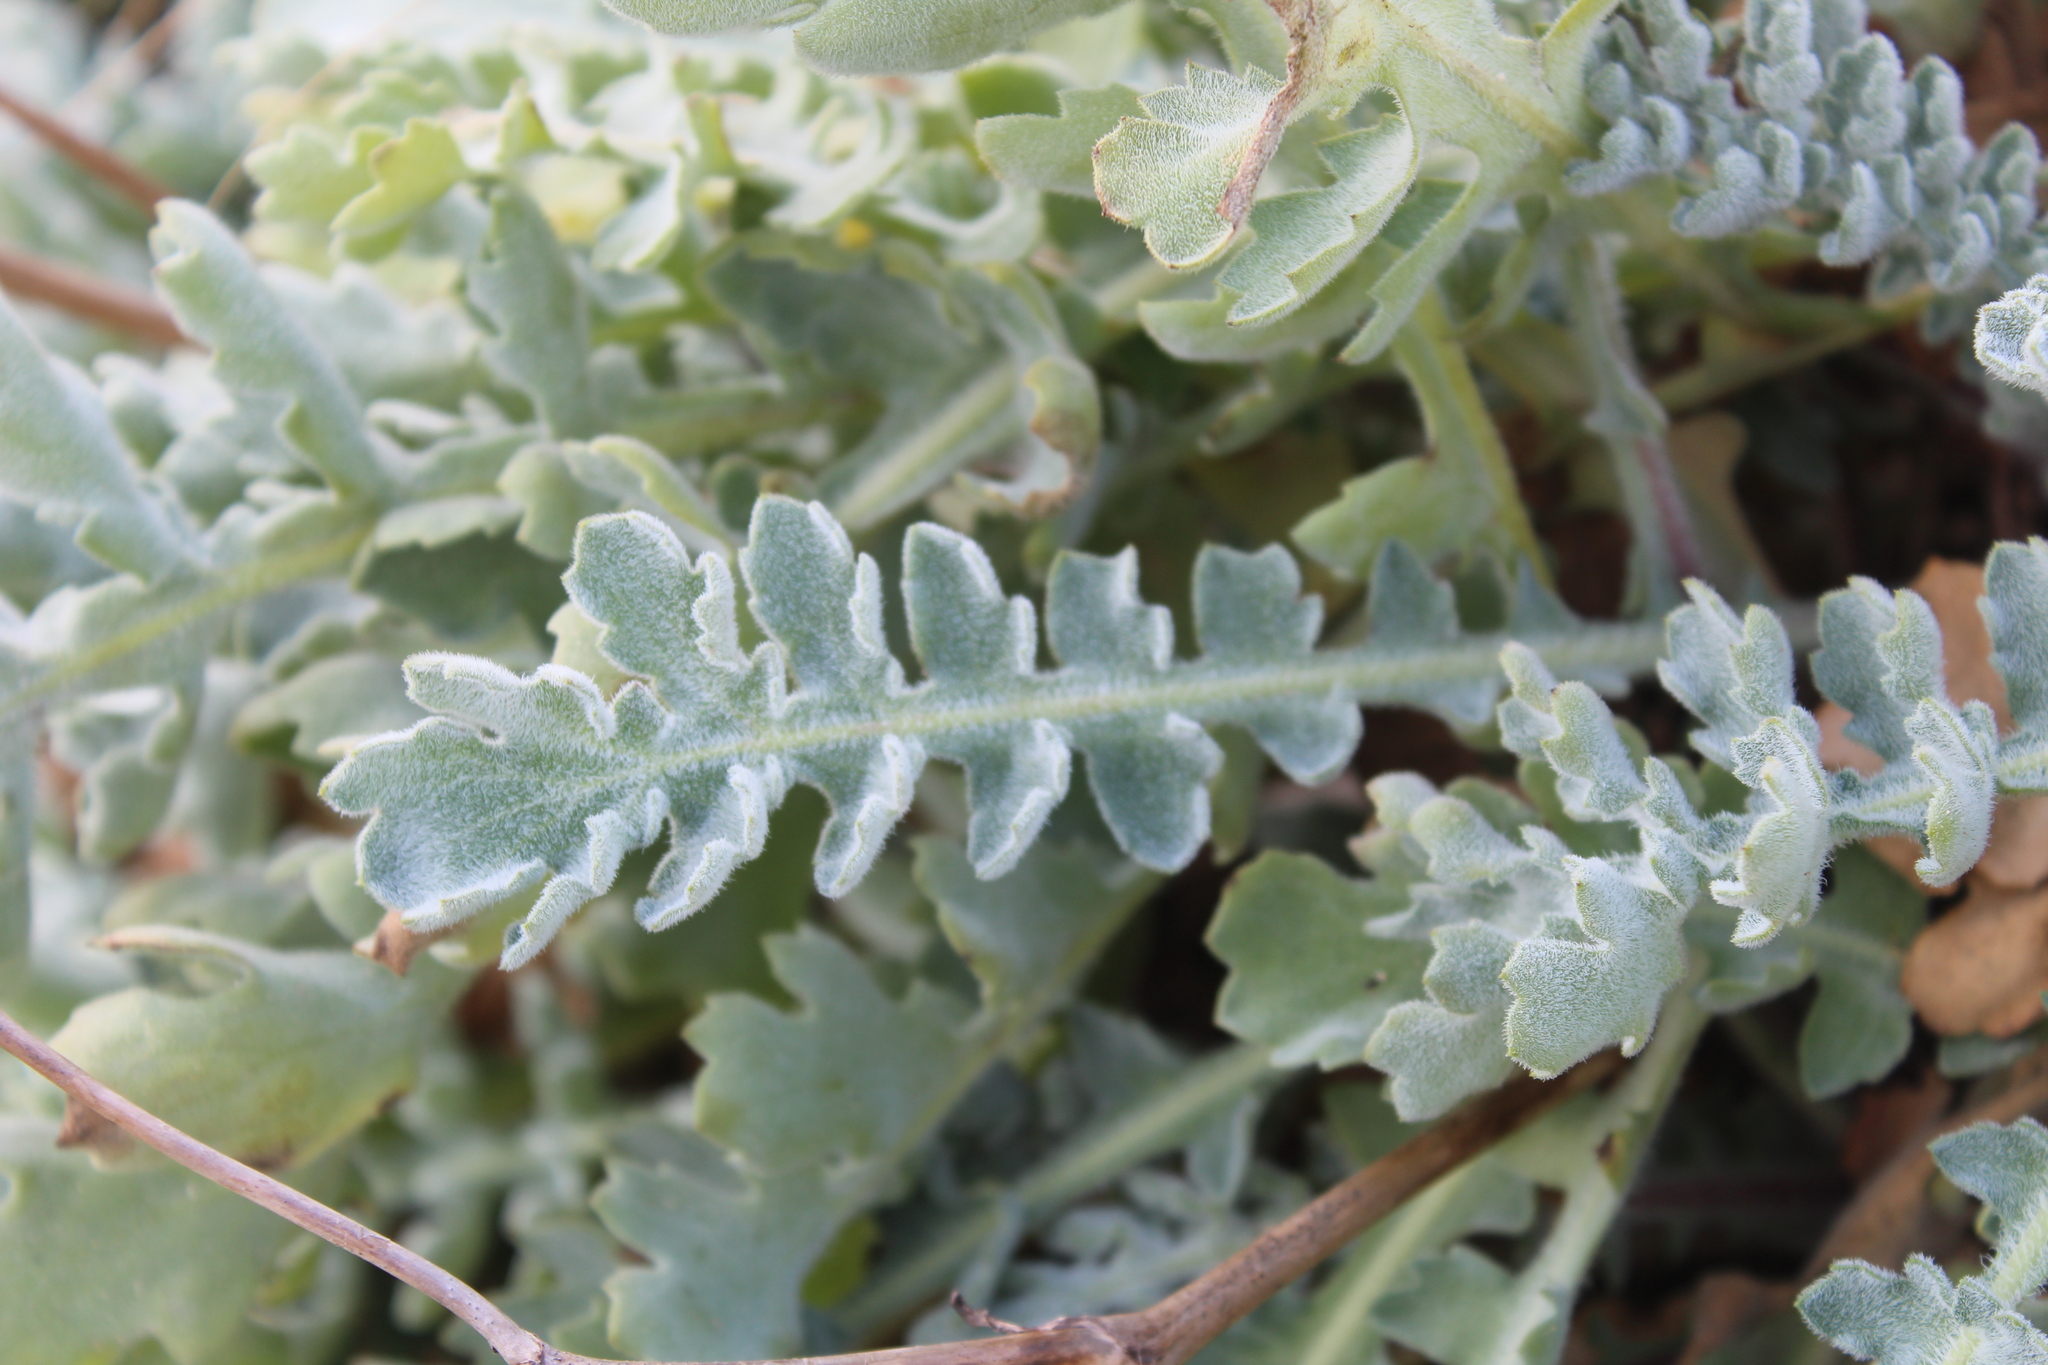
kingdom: Plantae
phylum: Tracheophyta
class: Magnoliopsida
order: Ranunculales
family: Papaveraceae
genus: Glaucium
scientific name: Glaucium flavum
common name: Yellow horned-poppy
